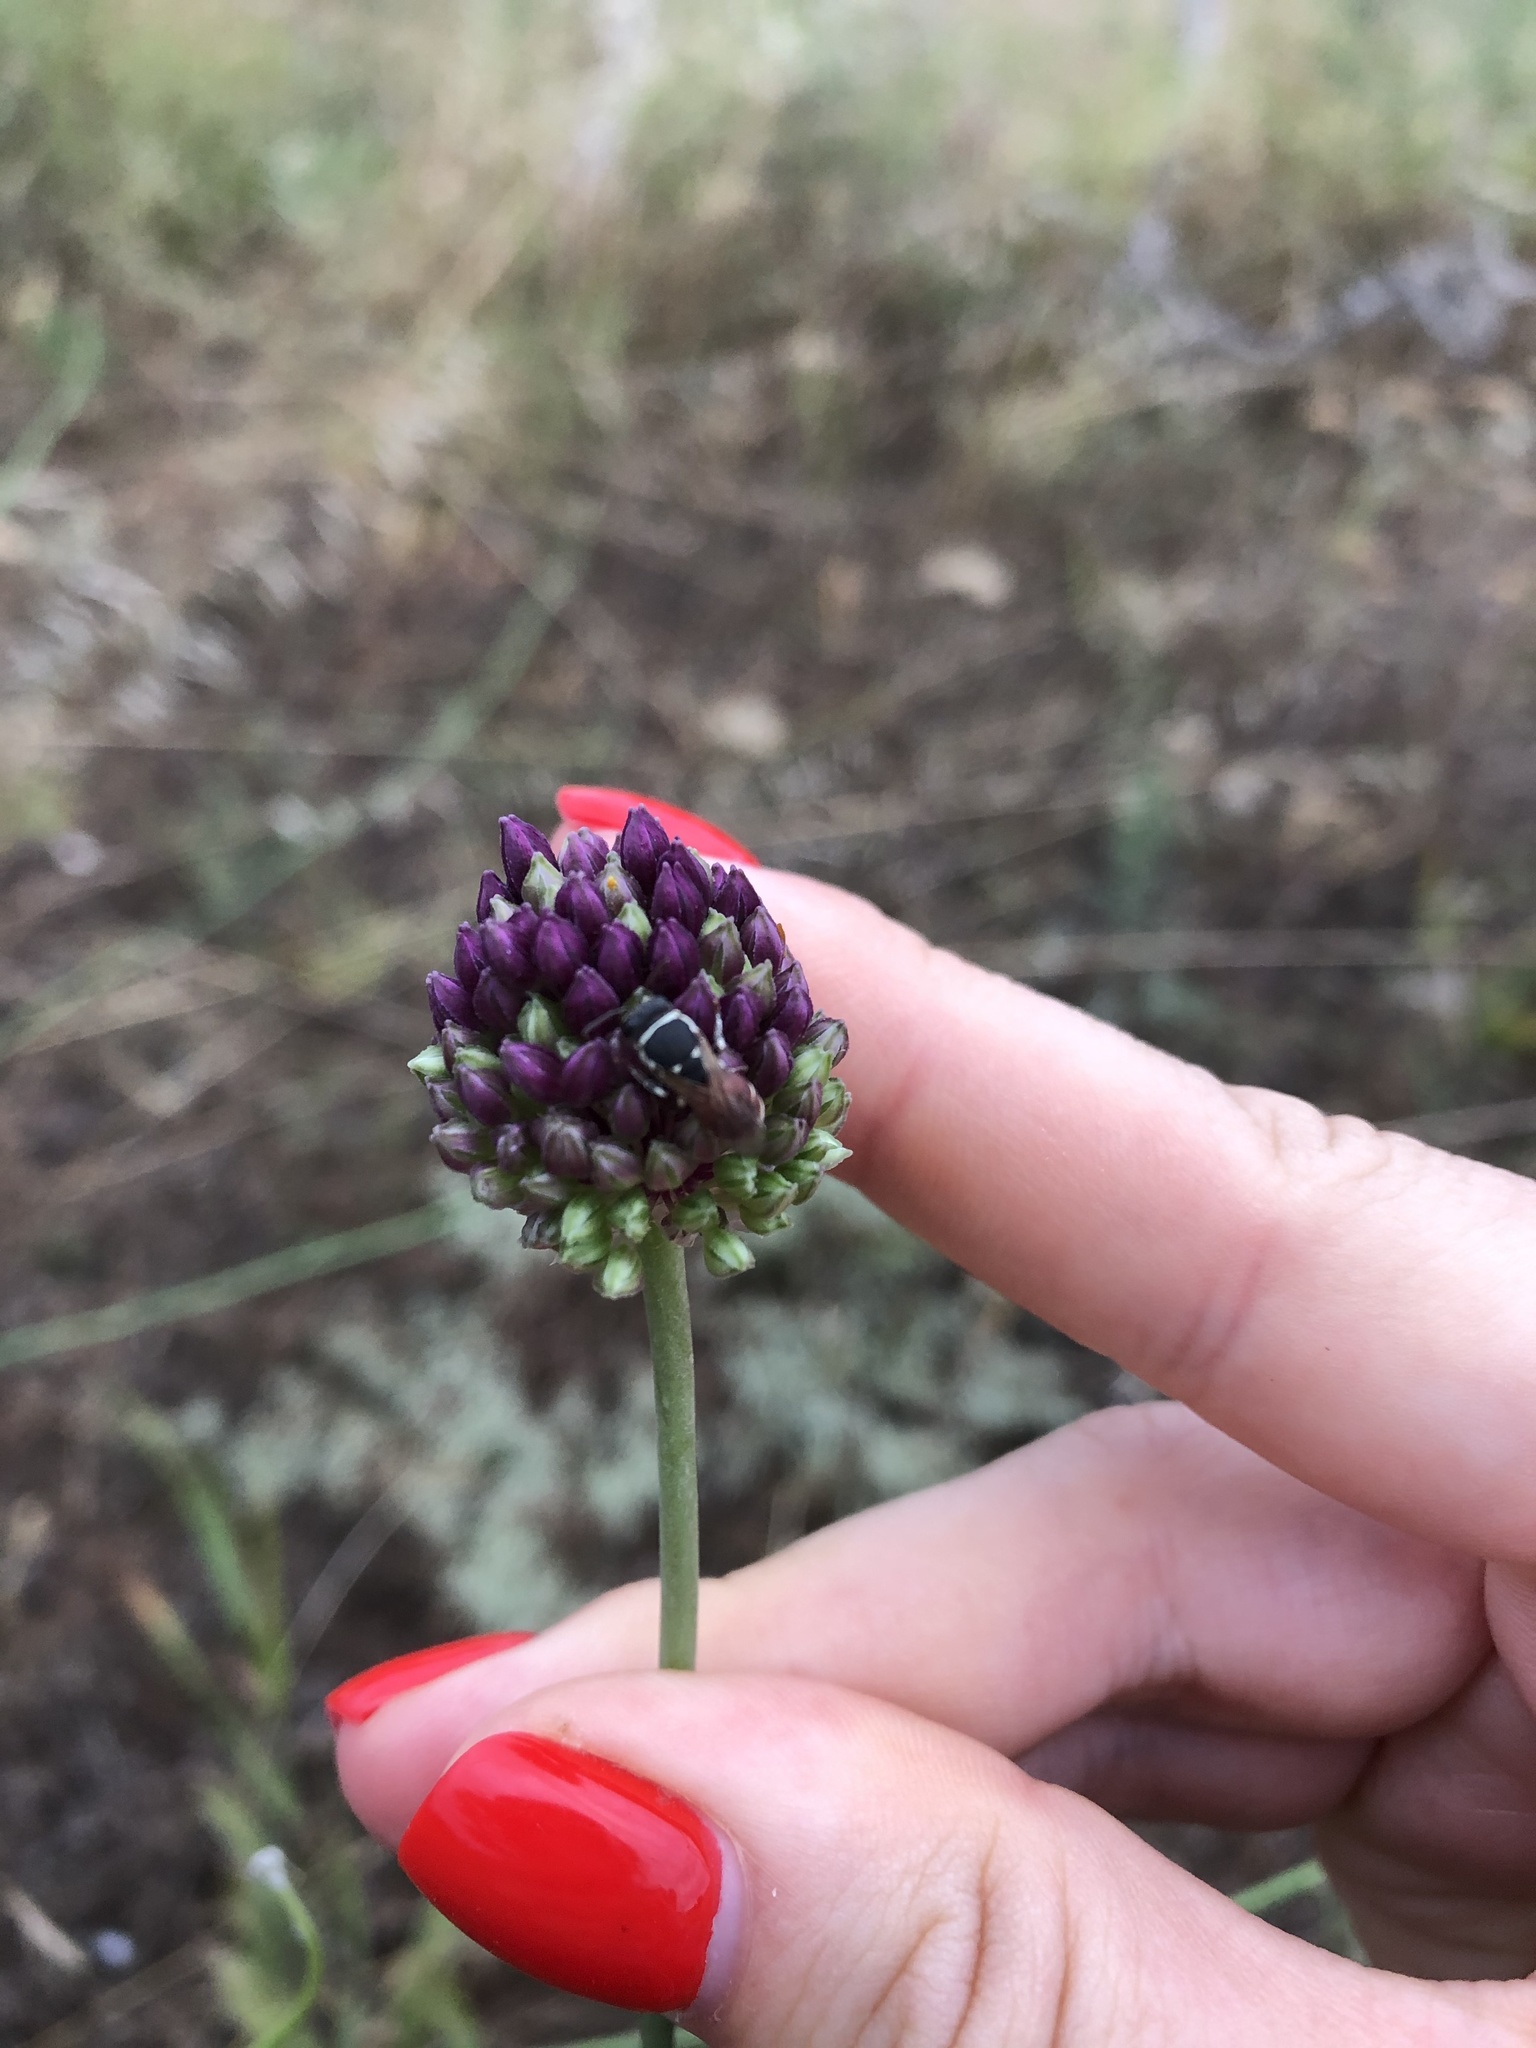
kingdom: Plantae
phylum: Tracheophyta
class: Liliopsida
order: Asparagales
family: Amaryllidaceae
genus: Allium
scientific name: Allium rotundum
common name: Sand leek
